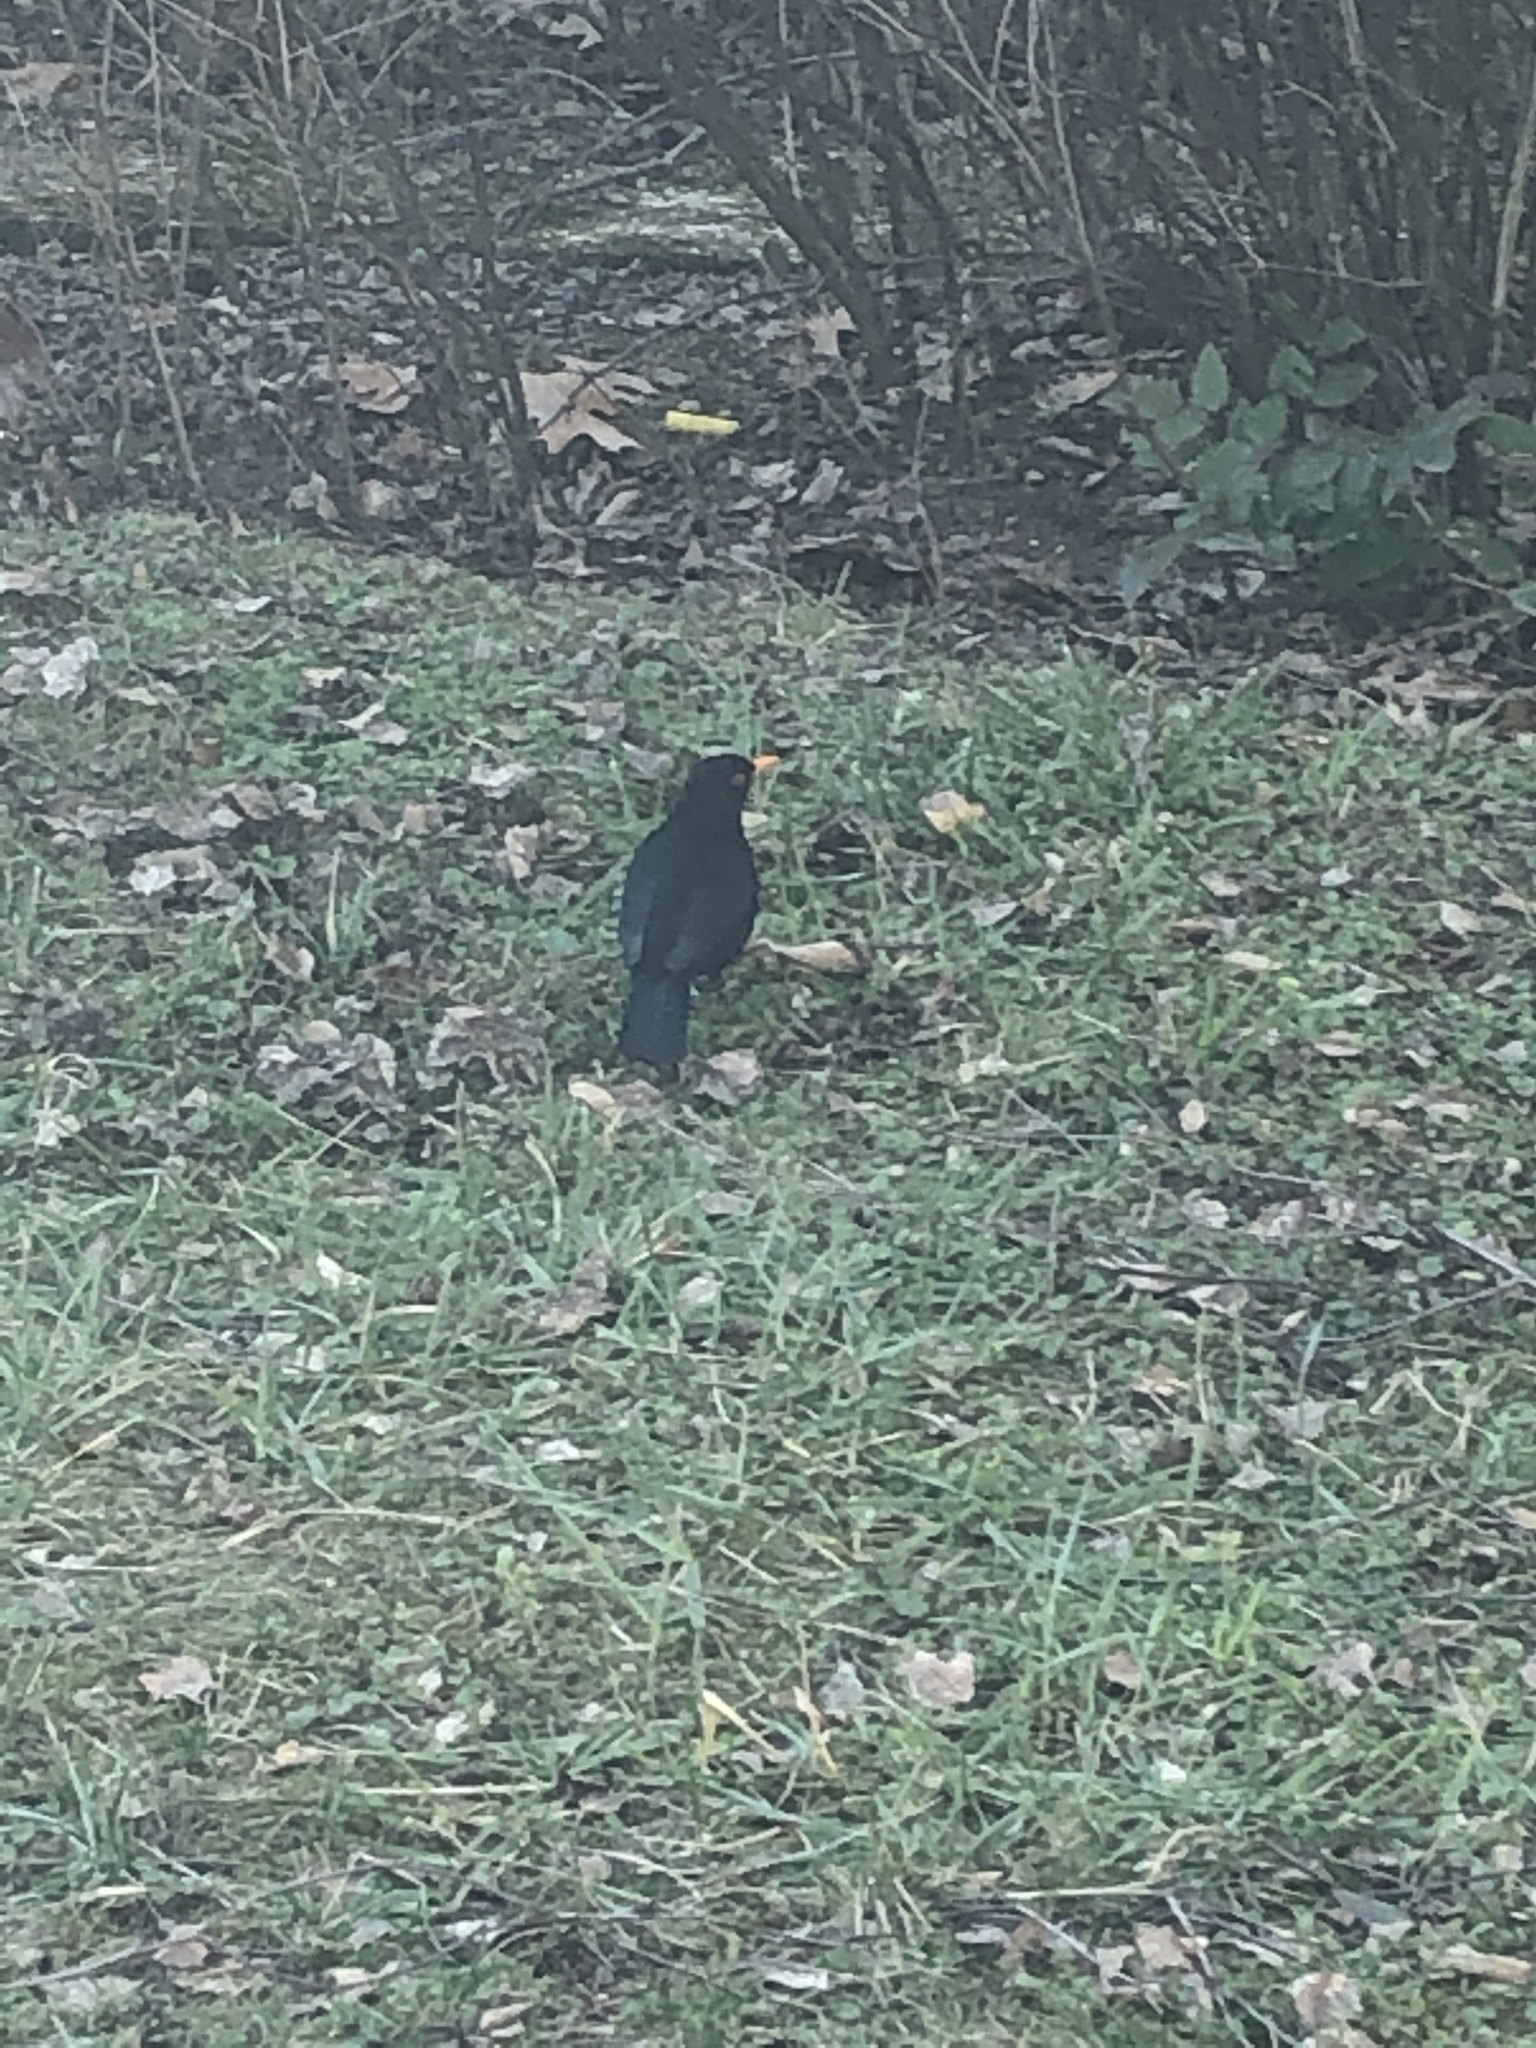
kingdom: Animalia
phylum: Chordata
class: Aves
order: Passeriformes
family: Turdidae
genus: Turdus
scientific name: Turdus merula
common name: Common blackbird
